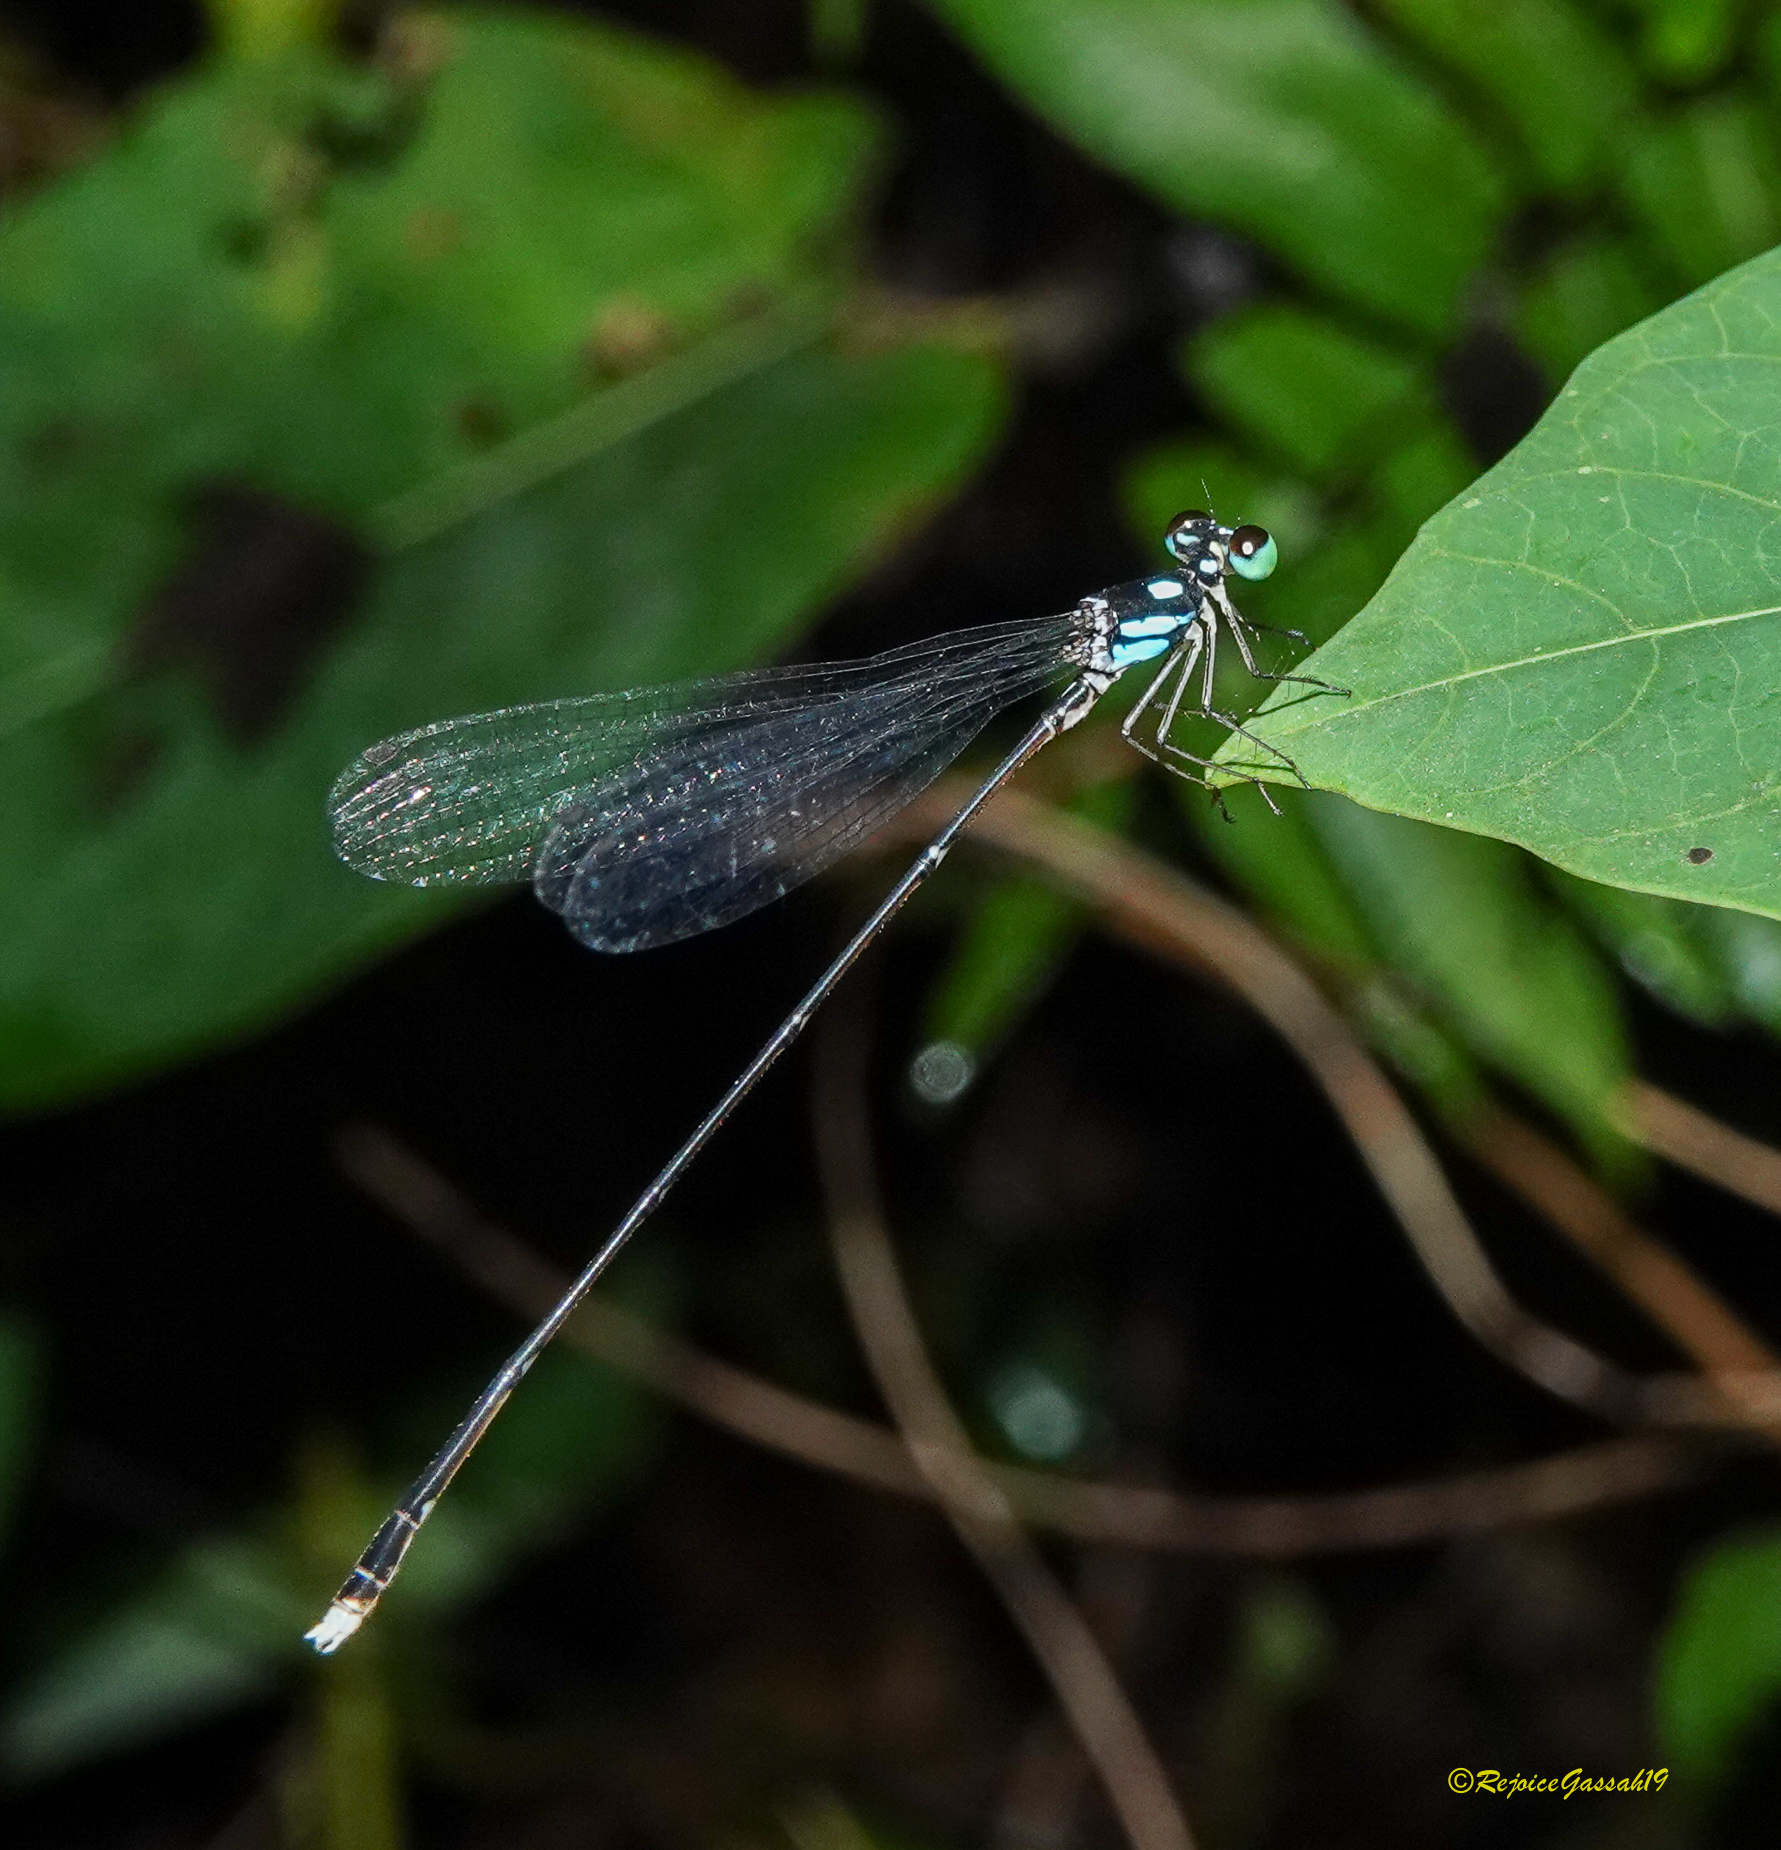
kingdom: Animalia
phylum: Arthropoda
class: Insecta
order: Odonata
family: Platycnemididae
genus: Coeliccia
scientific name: Coeliccia bimaculata
